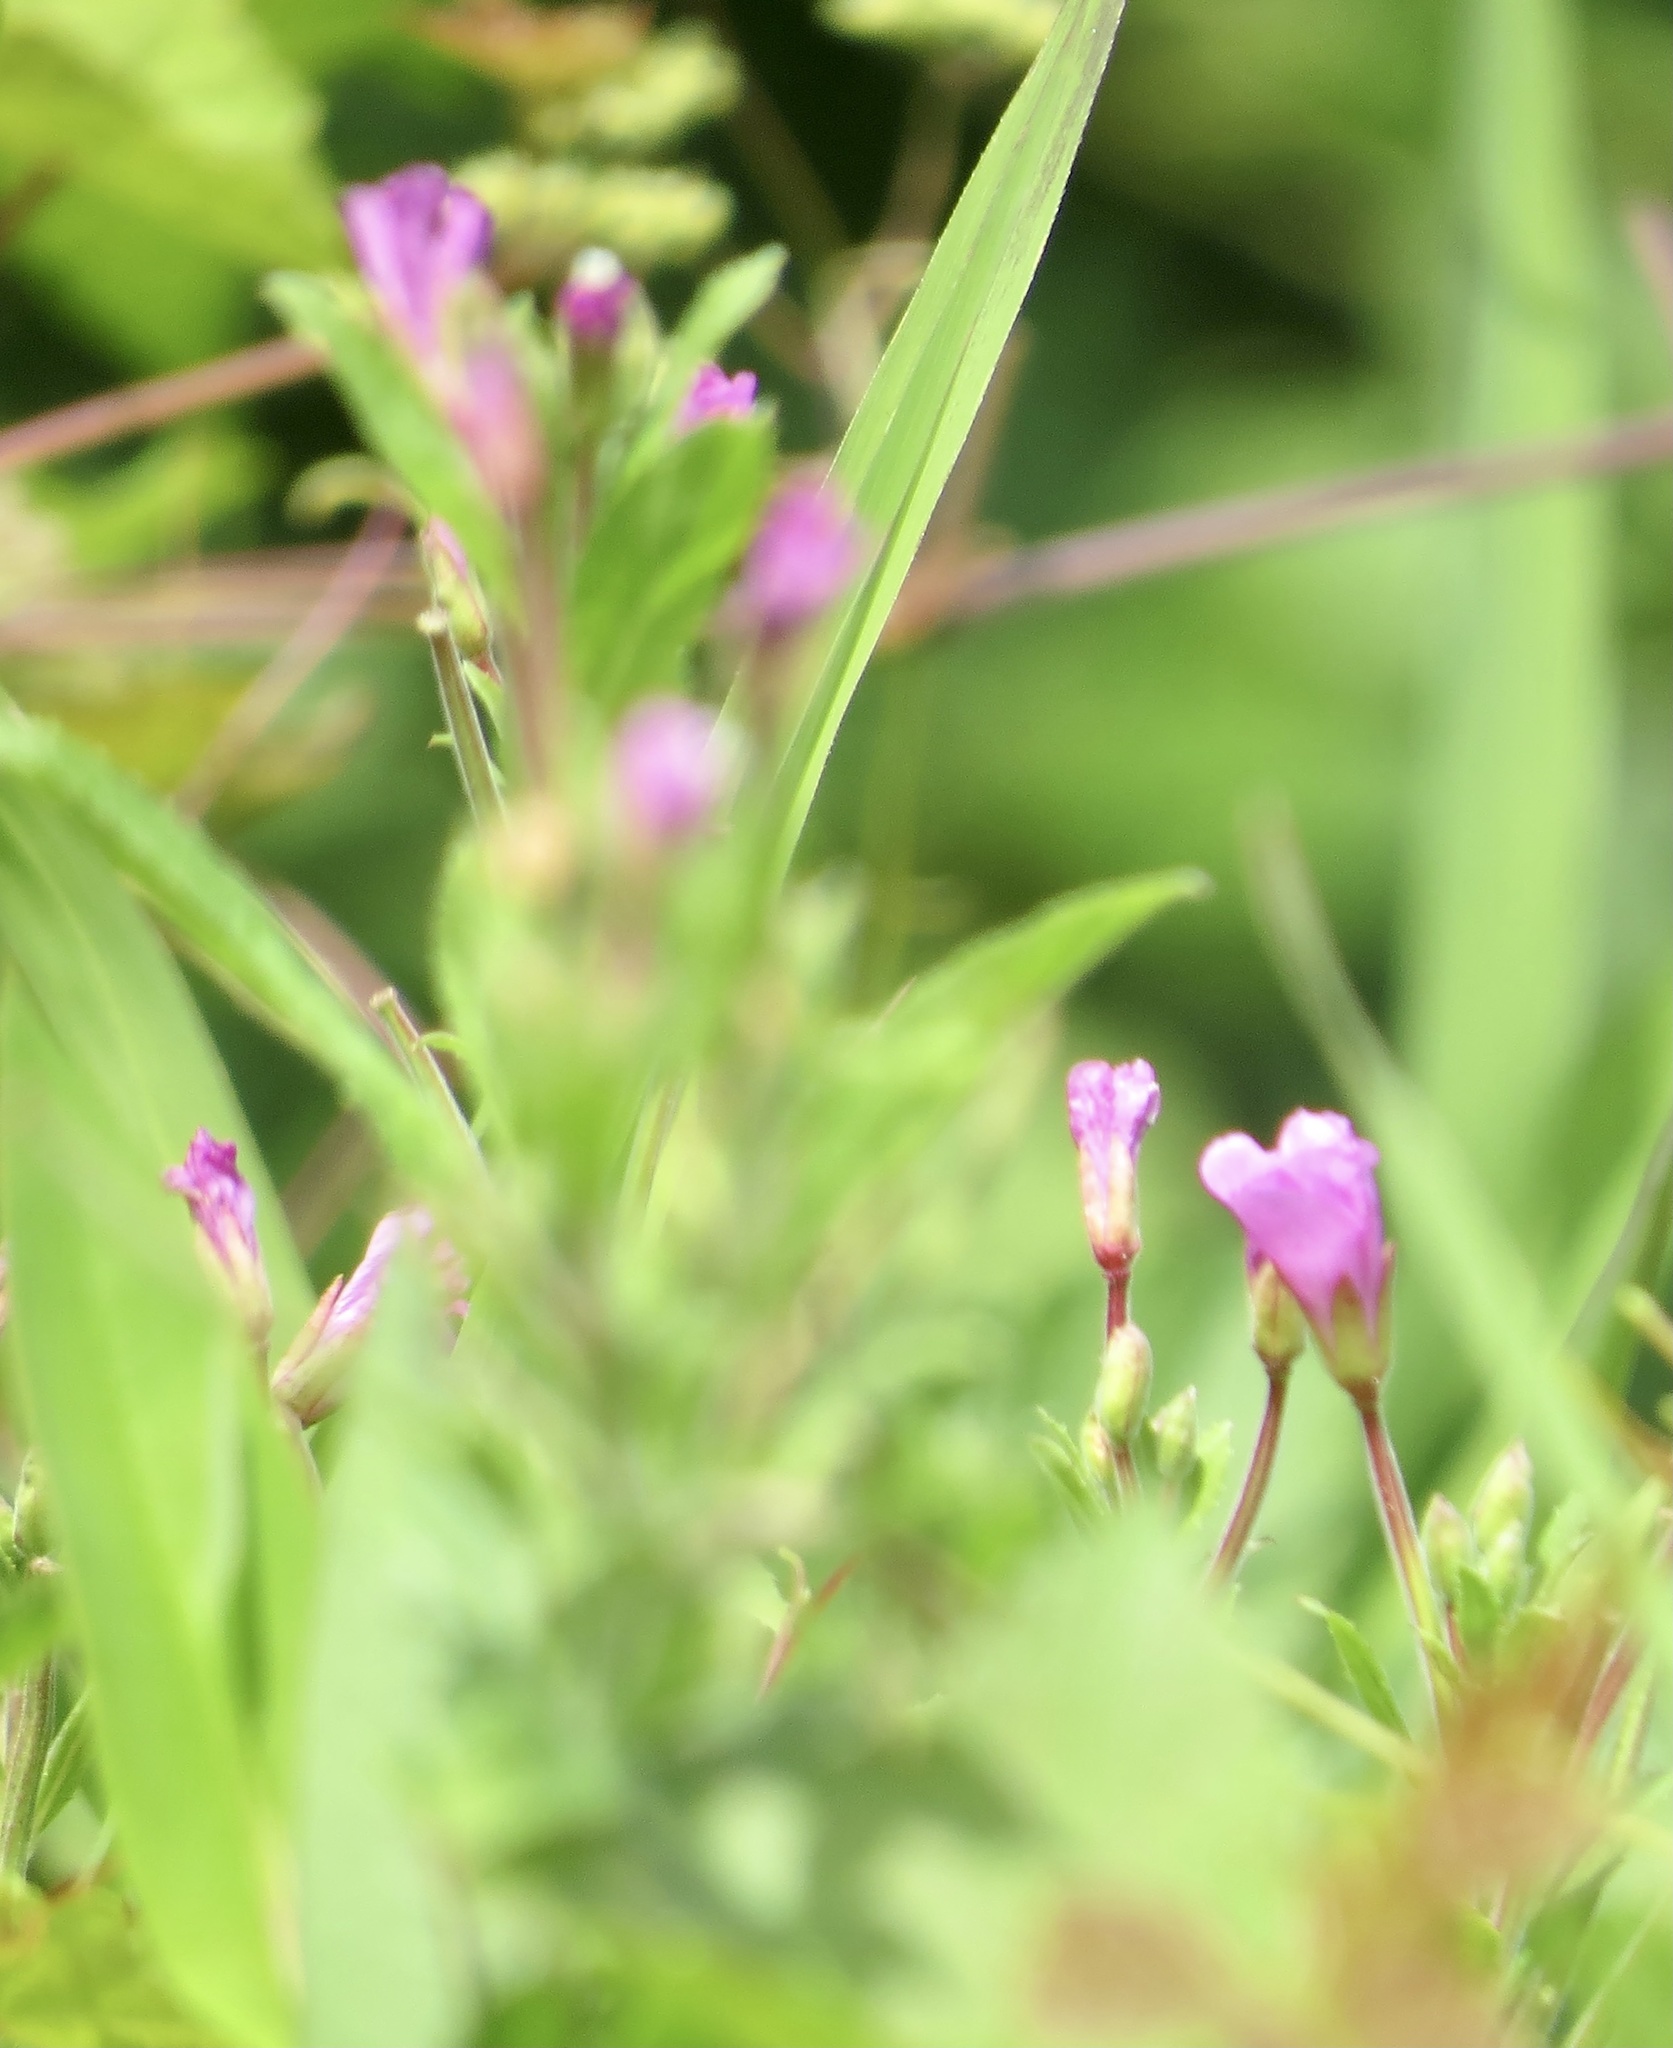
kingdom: Plantae
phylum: Tracheophyta
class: Magnoliopsida
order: Myrtales
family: Onagraceae
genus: Epilobium
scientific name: Epilobium hirsutum
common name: Great willowherb
